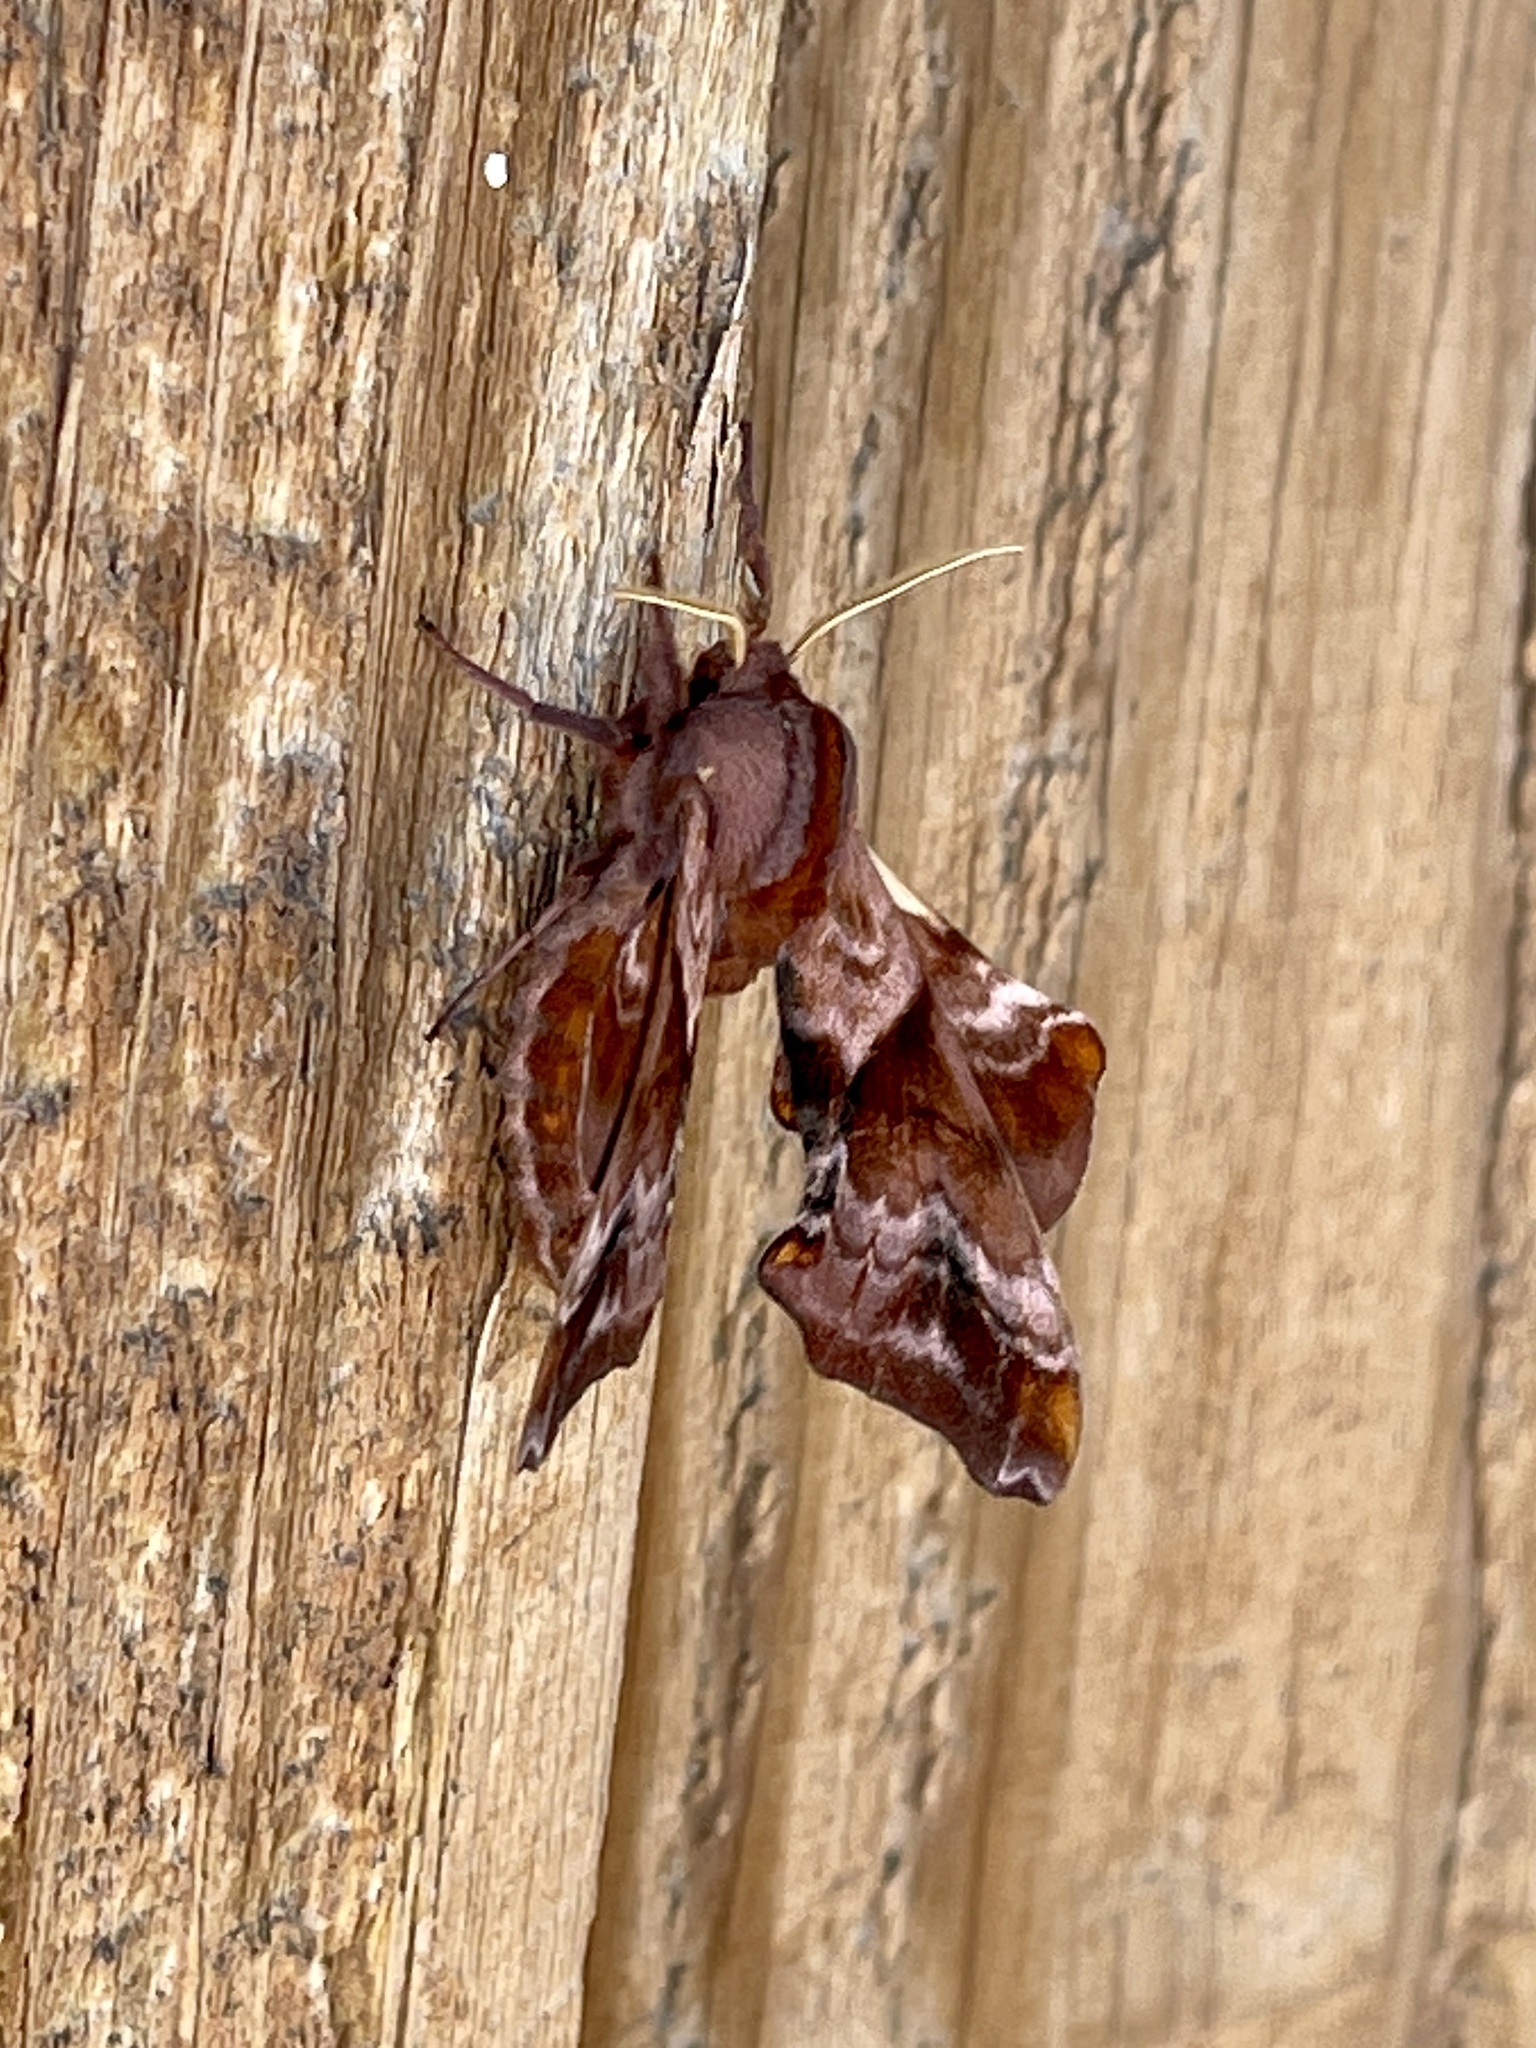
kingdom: Animalia
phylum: Arthropoda
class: Insecta
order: Lepidoptera
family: Sphingidae
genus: Paonias
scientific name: Paonias myops
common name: Small-eyed sphinx
